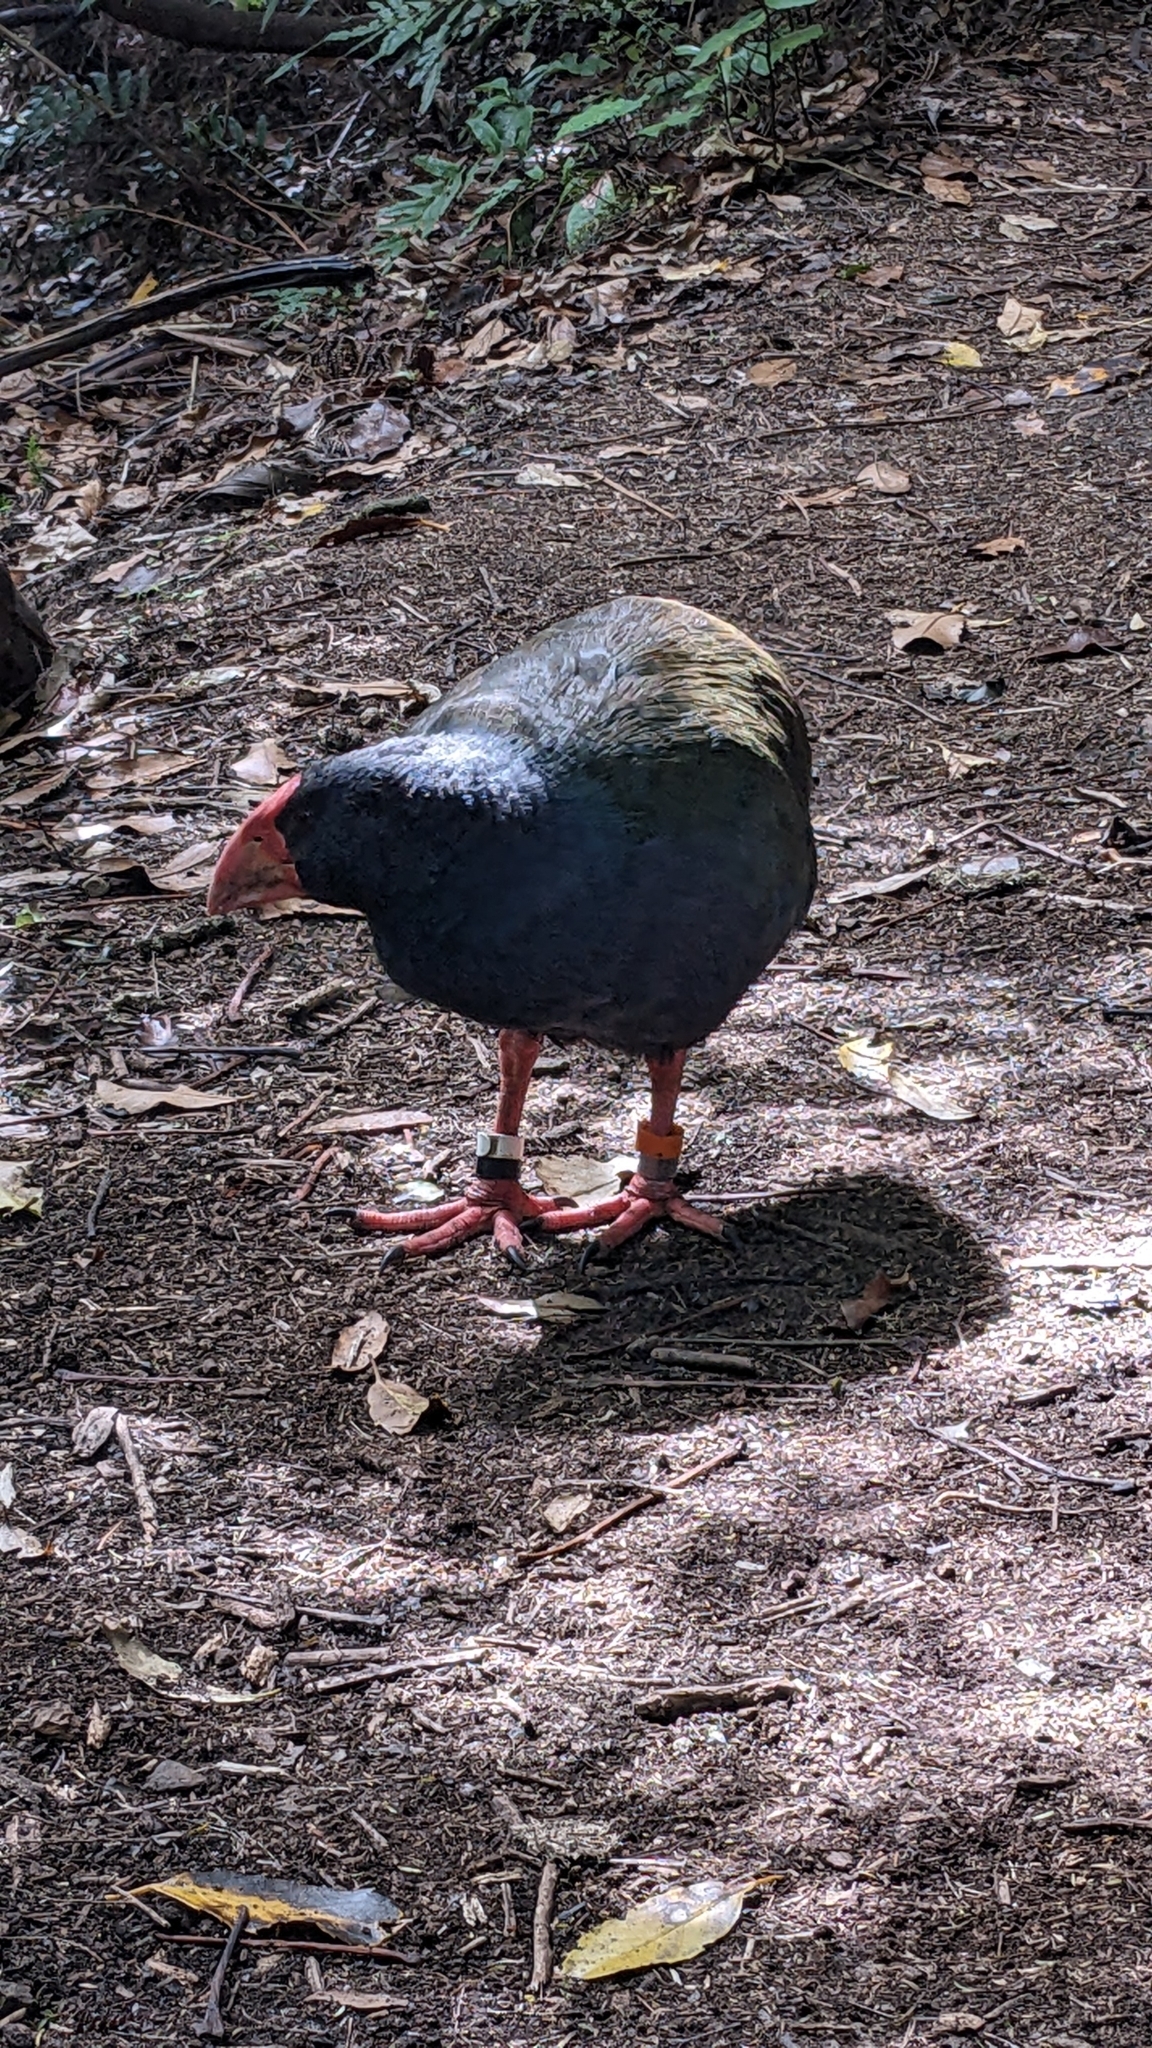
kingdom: Animalia
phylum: Chordata
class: Aves
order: Gruiformes
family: Rallidae
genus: Porphyrio
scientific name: Porphyrio hochstetteri
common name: South island takahe
